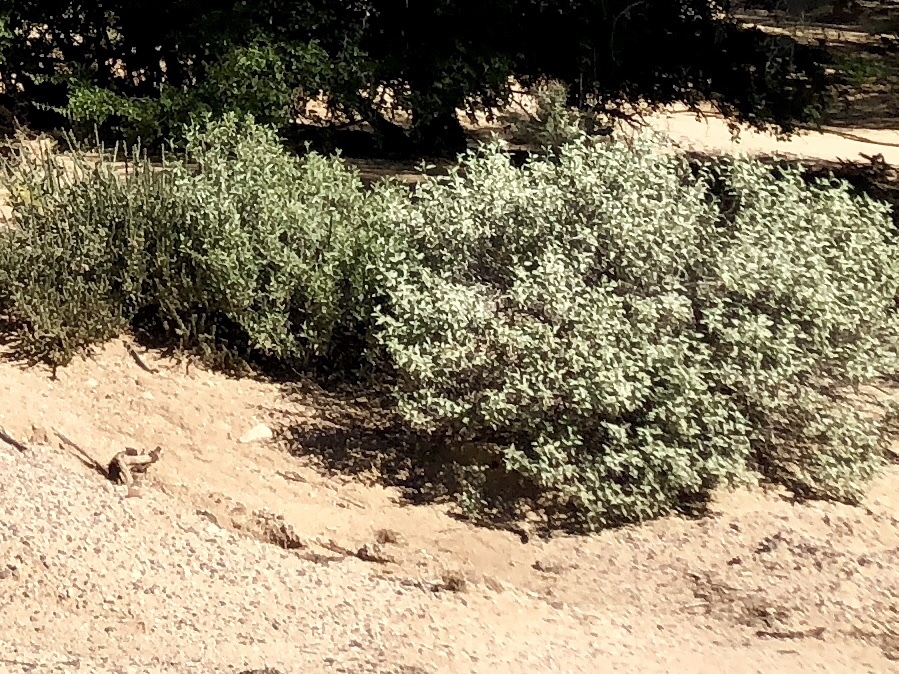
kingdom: Plantae
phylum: Tracheophyta
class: Magnoliopsida
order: Asterales
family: Asteraceae
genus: Ambrosia
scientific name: Ambrosia deltoidea
